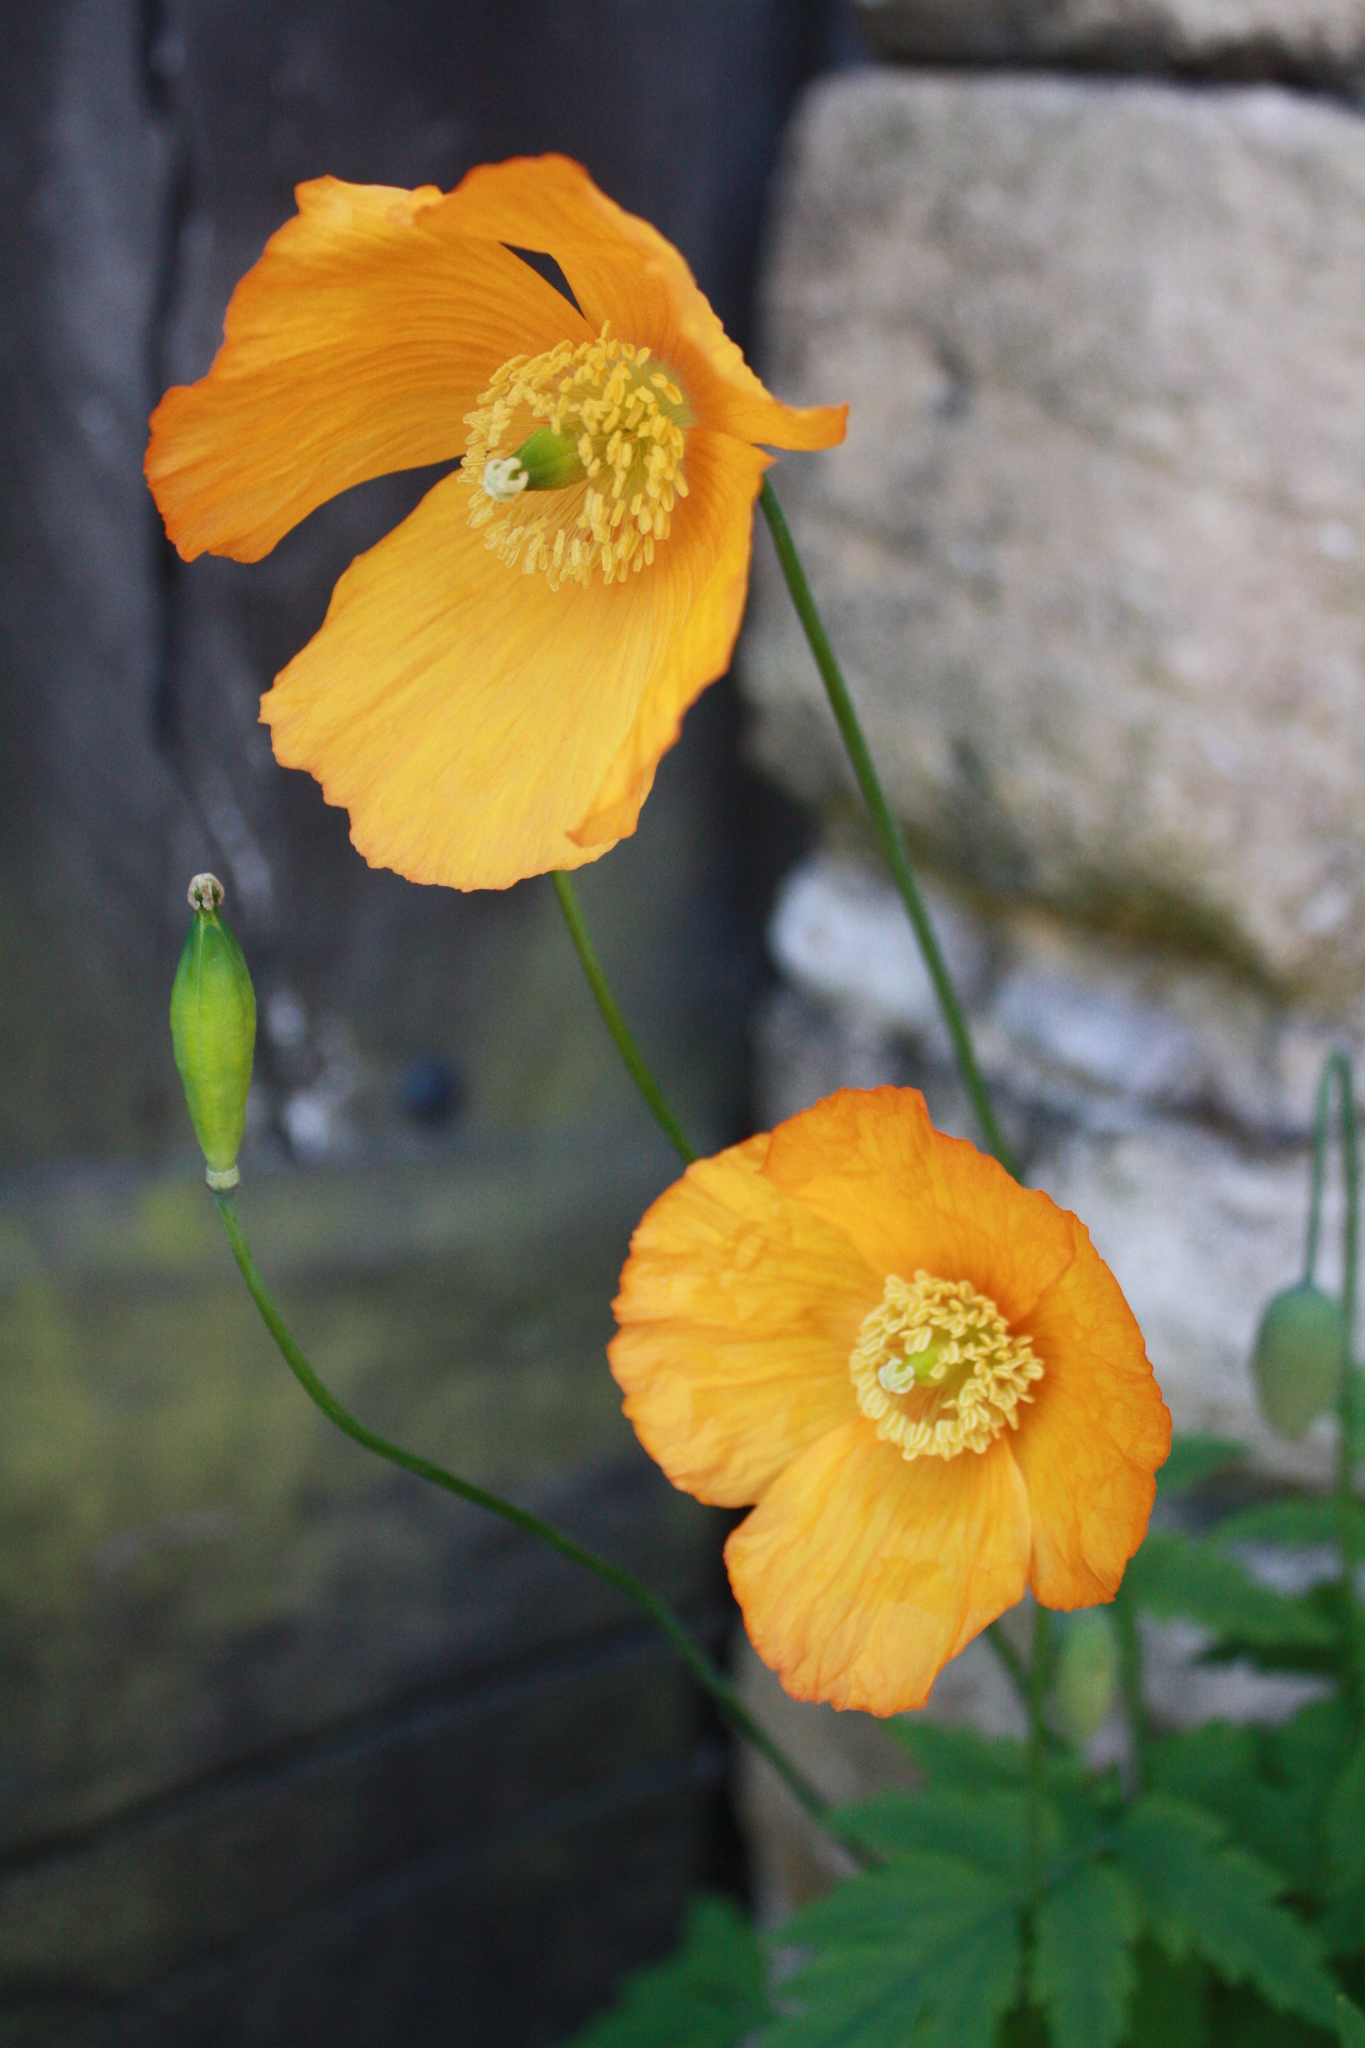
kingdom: Plantae
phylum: Tracheophyta
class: Magnoliopsida
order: Ranunculales
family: Papaveraceae
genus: Papaver
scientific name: Papaver cambricum
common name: Poppy
